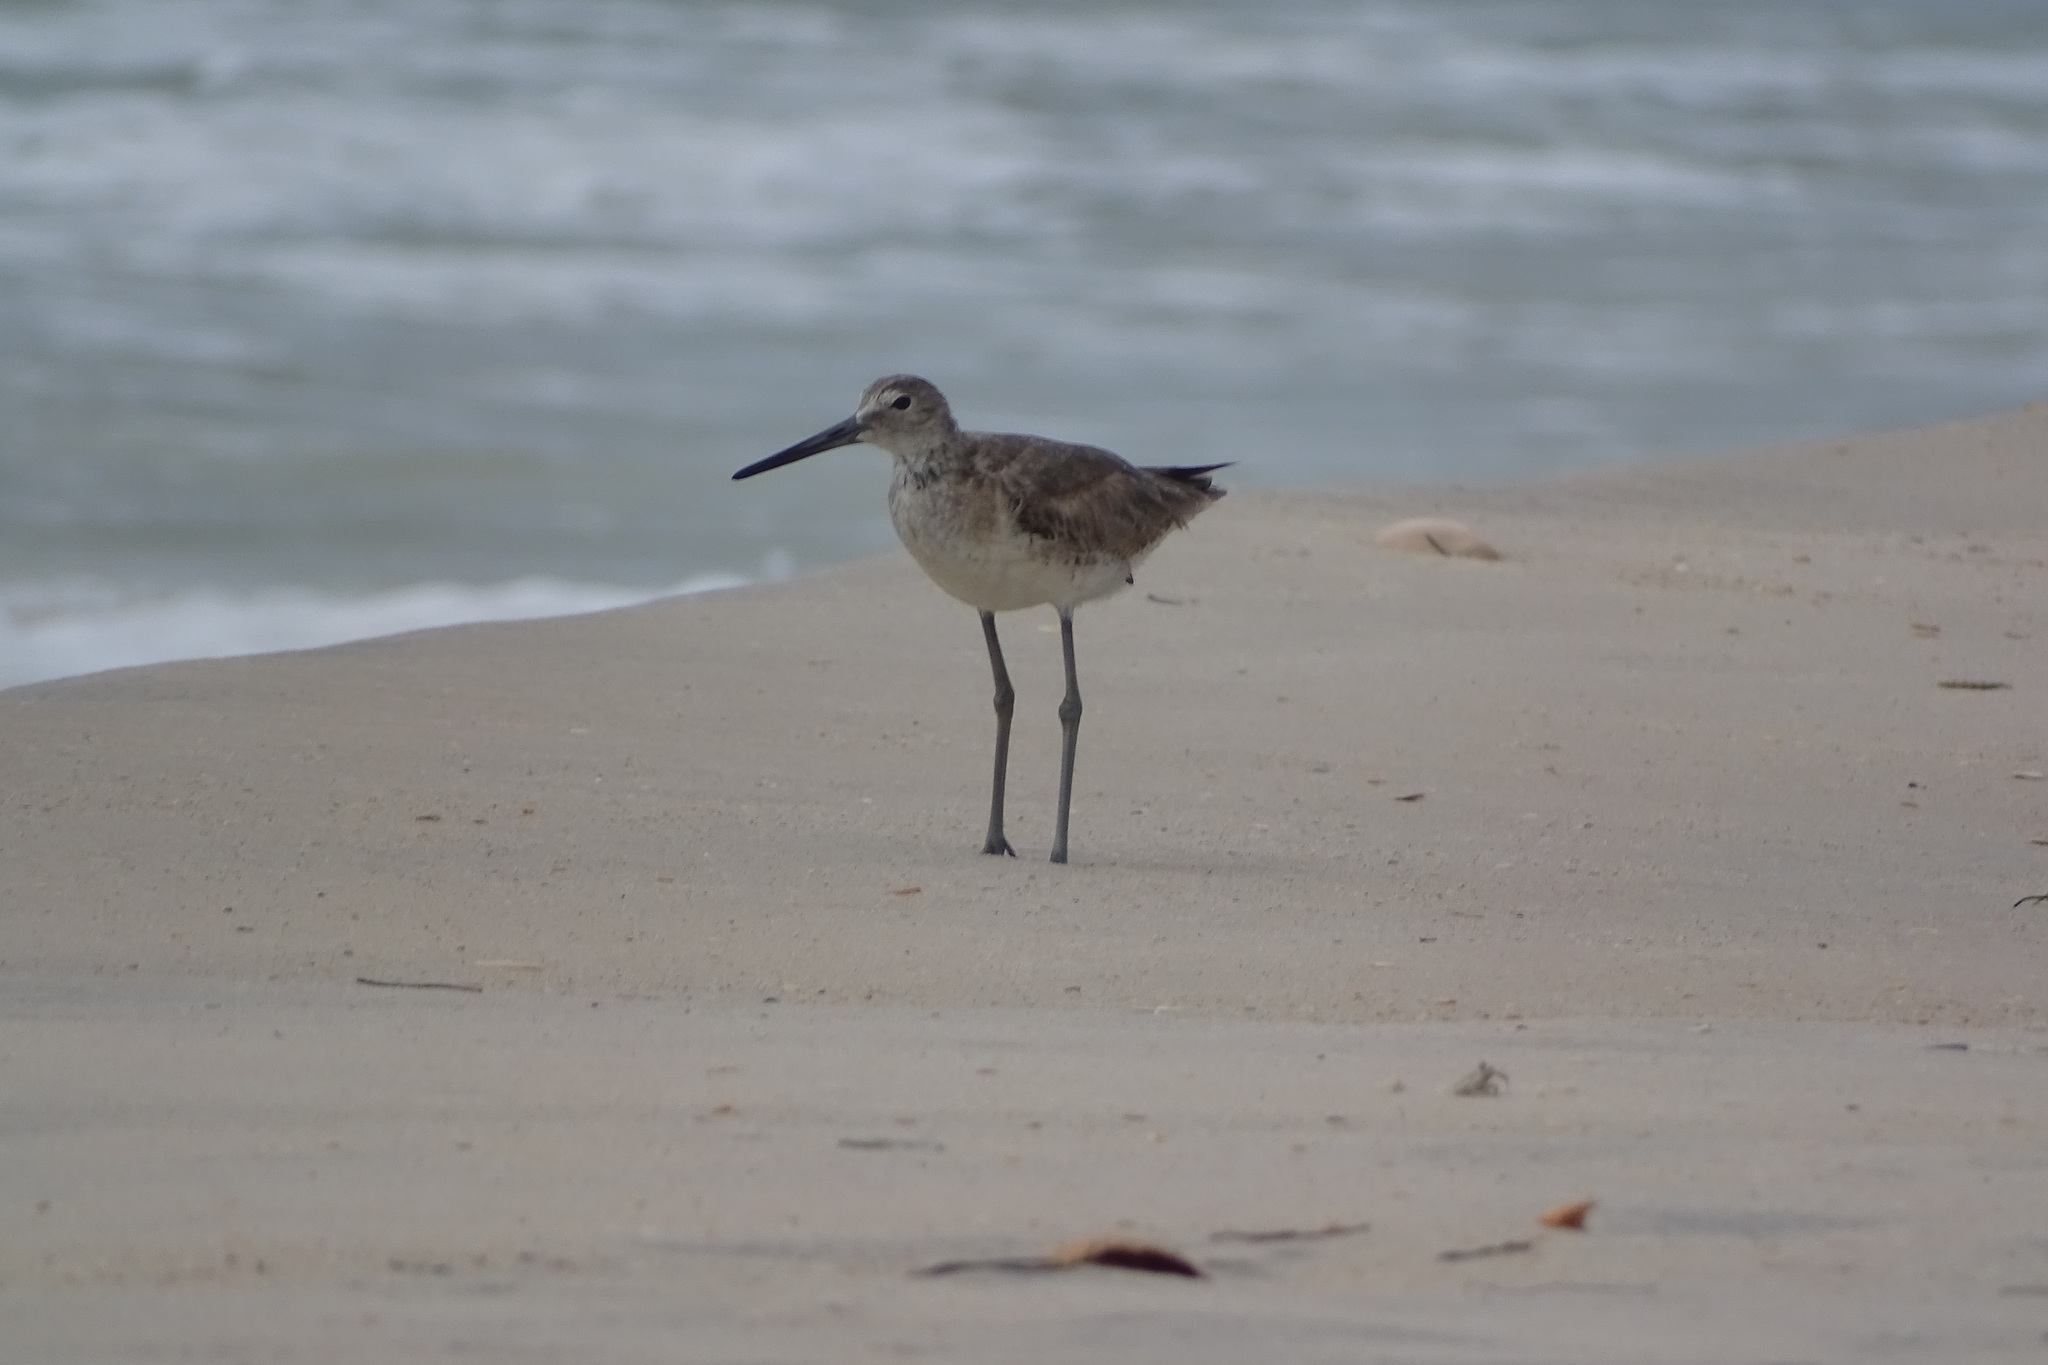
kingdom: Animalia
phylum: Chordata
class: Aves
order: Charadriiformes
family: Scolopacidae
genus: Tringa
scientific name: Tringa semipalmata
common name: Willet
